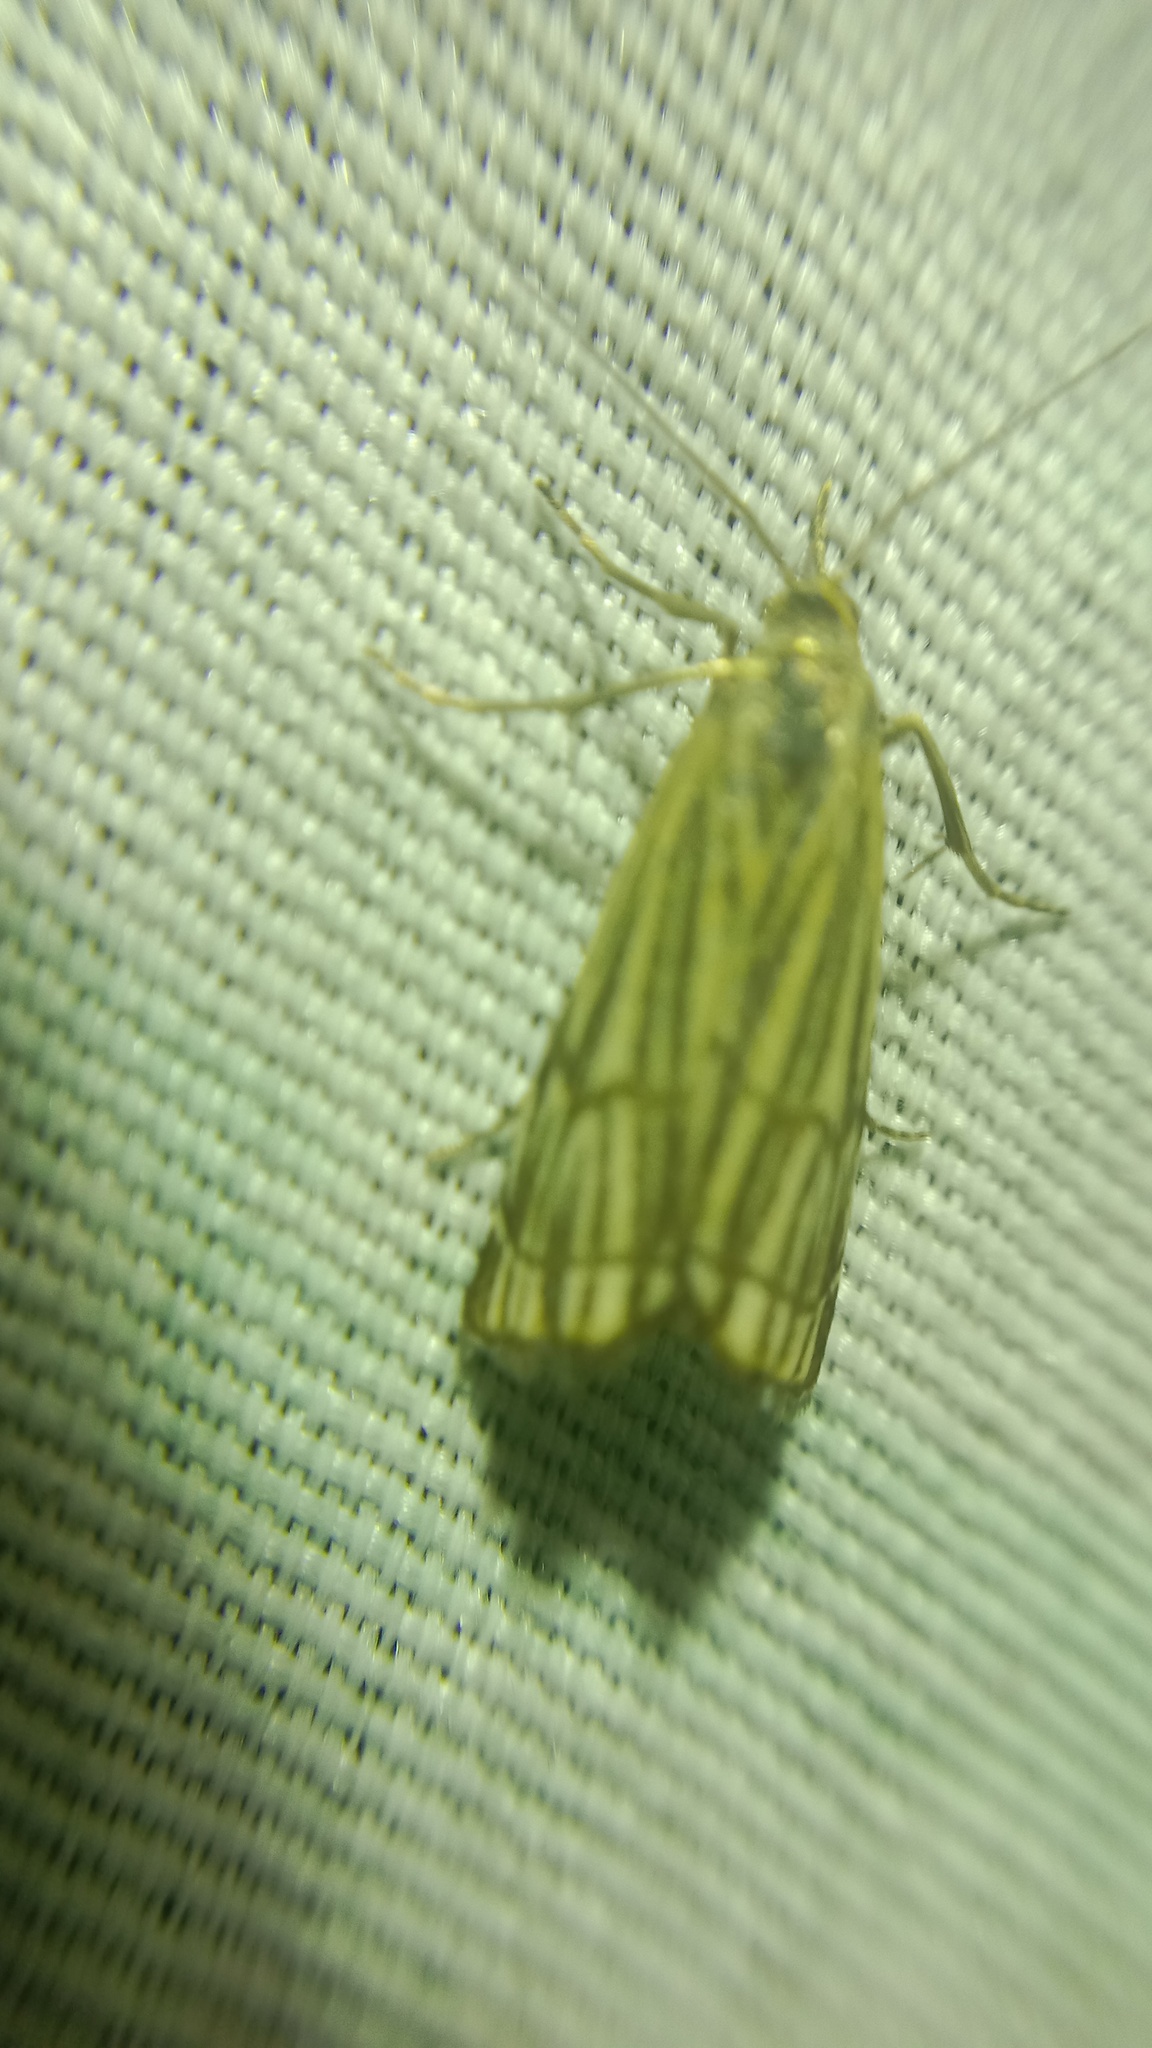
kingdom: Animalia
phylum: Arthropoda
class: Insecta
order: Lepidoptera
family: Crambidae
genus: Chrysocrambus
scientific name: Chrysocrambus Chrysocramboides craterellus
